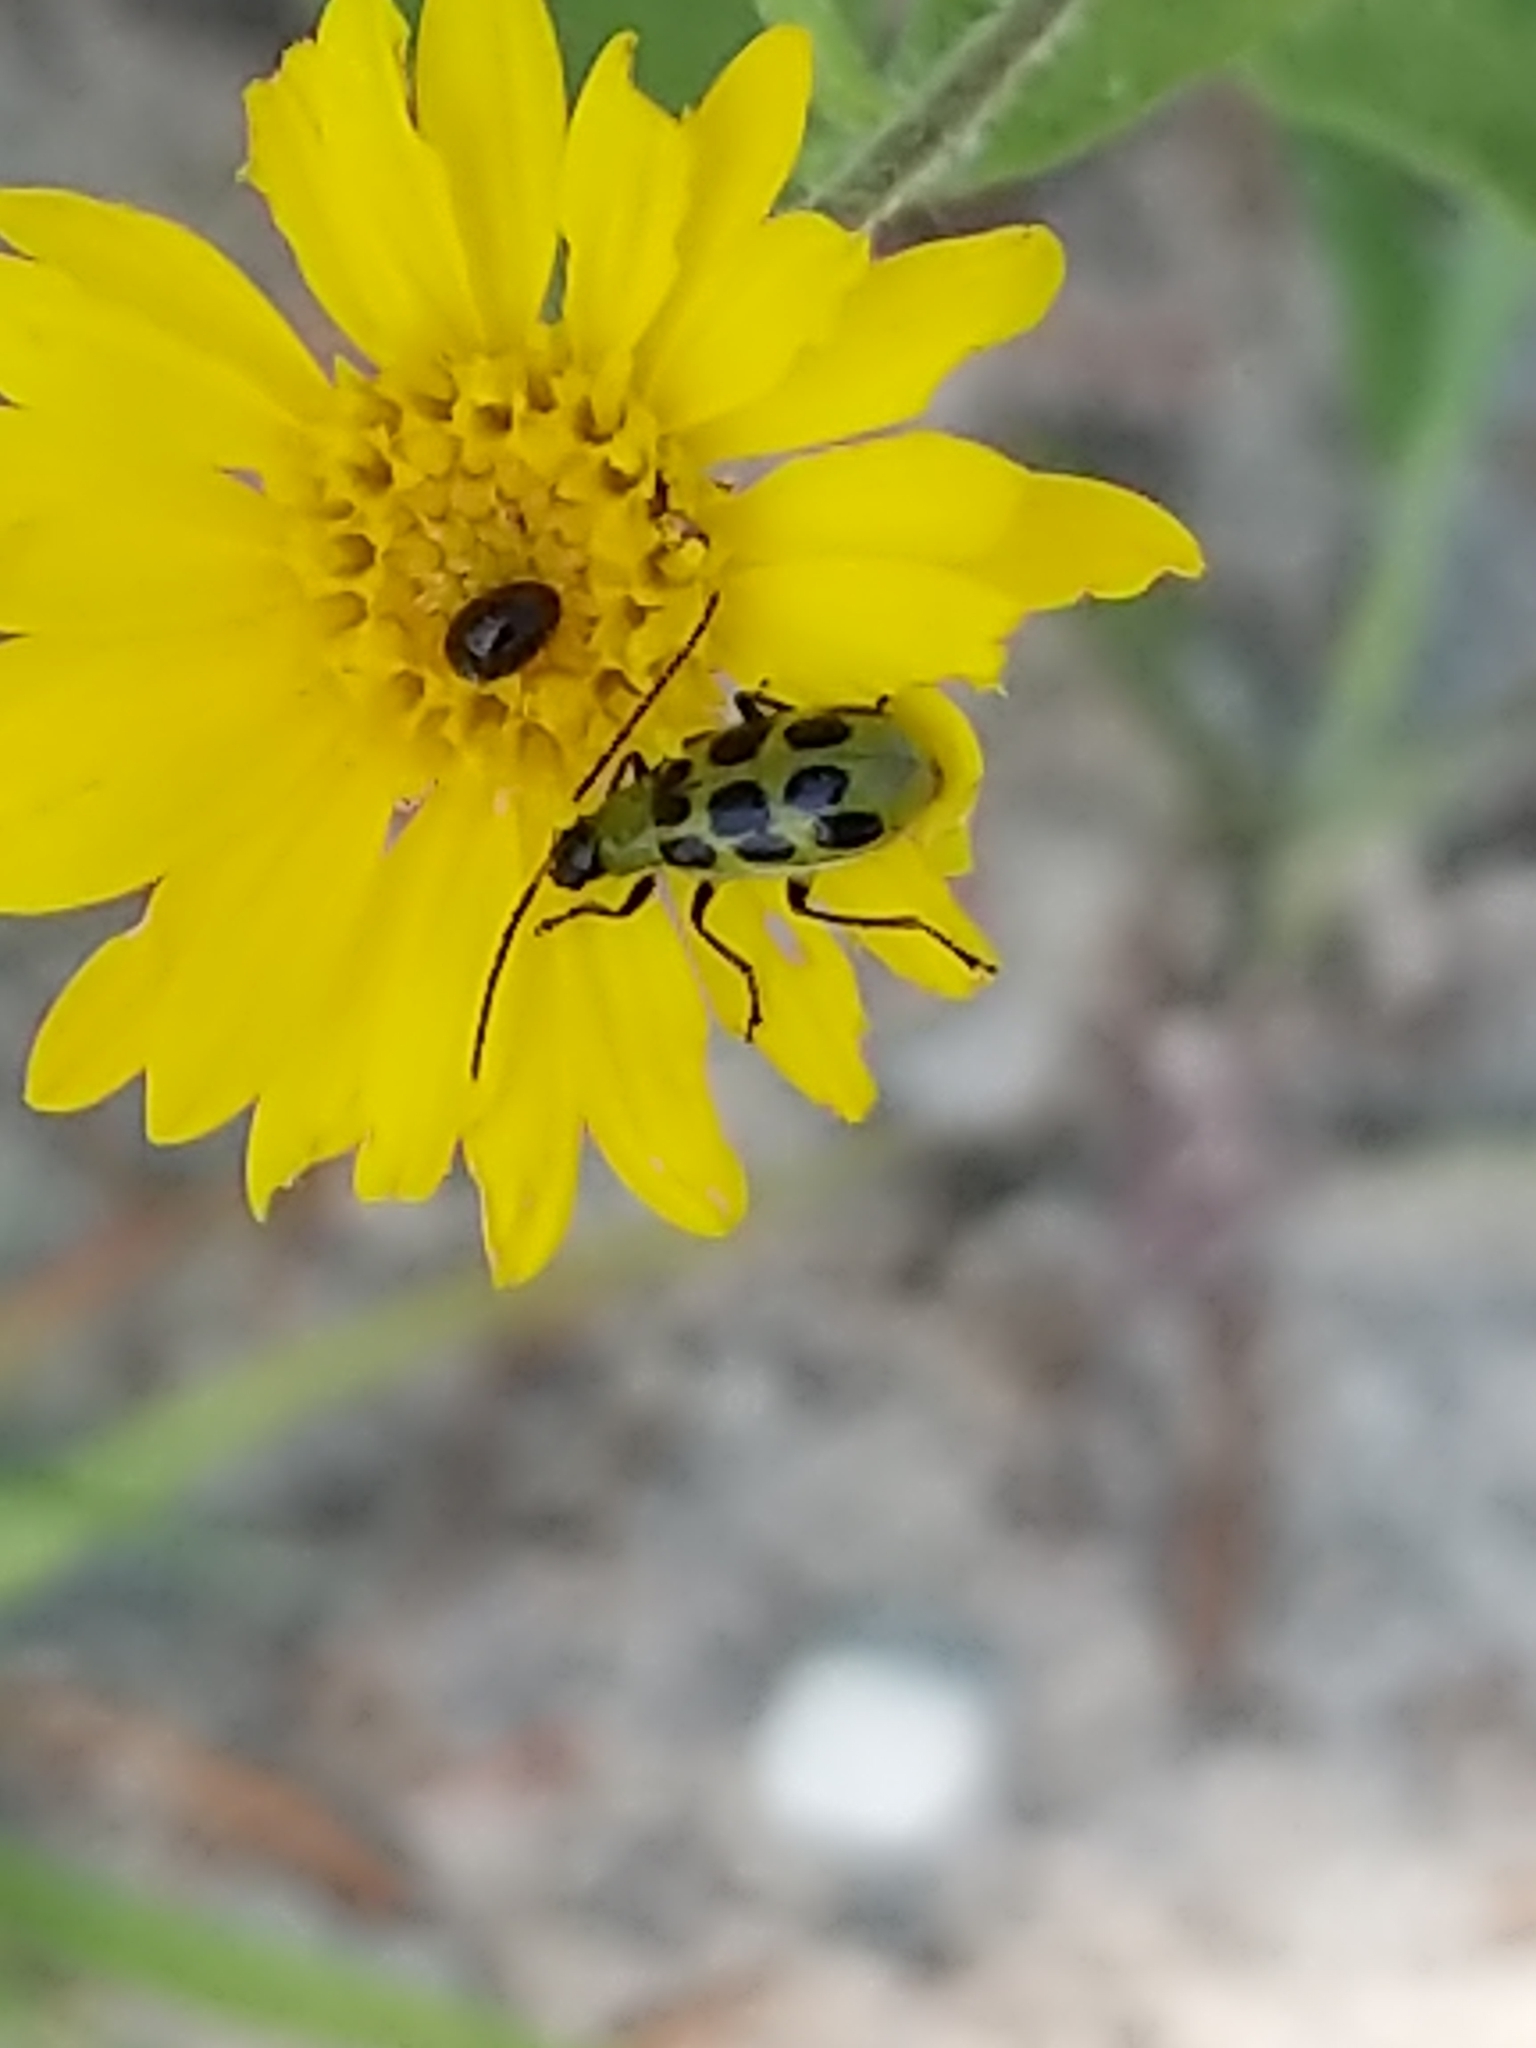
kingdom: Animalia
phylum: Arthropoda
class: Insecta
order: Coleoptera
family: Chrysomelidae
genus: Diabrotica
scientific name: Diabrotica undecimpunctata
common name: Spotted cucumber beetle
